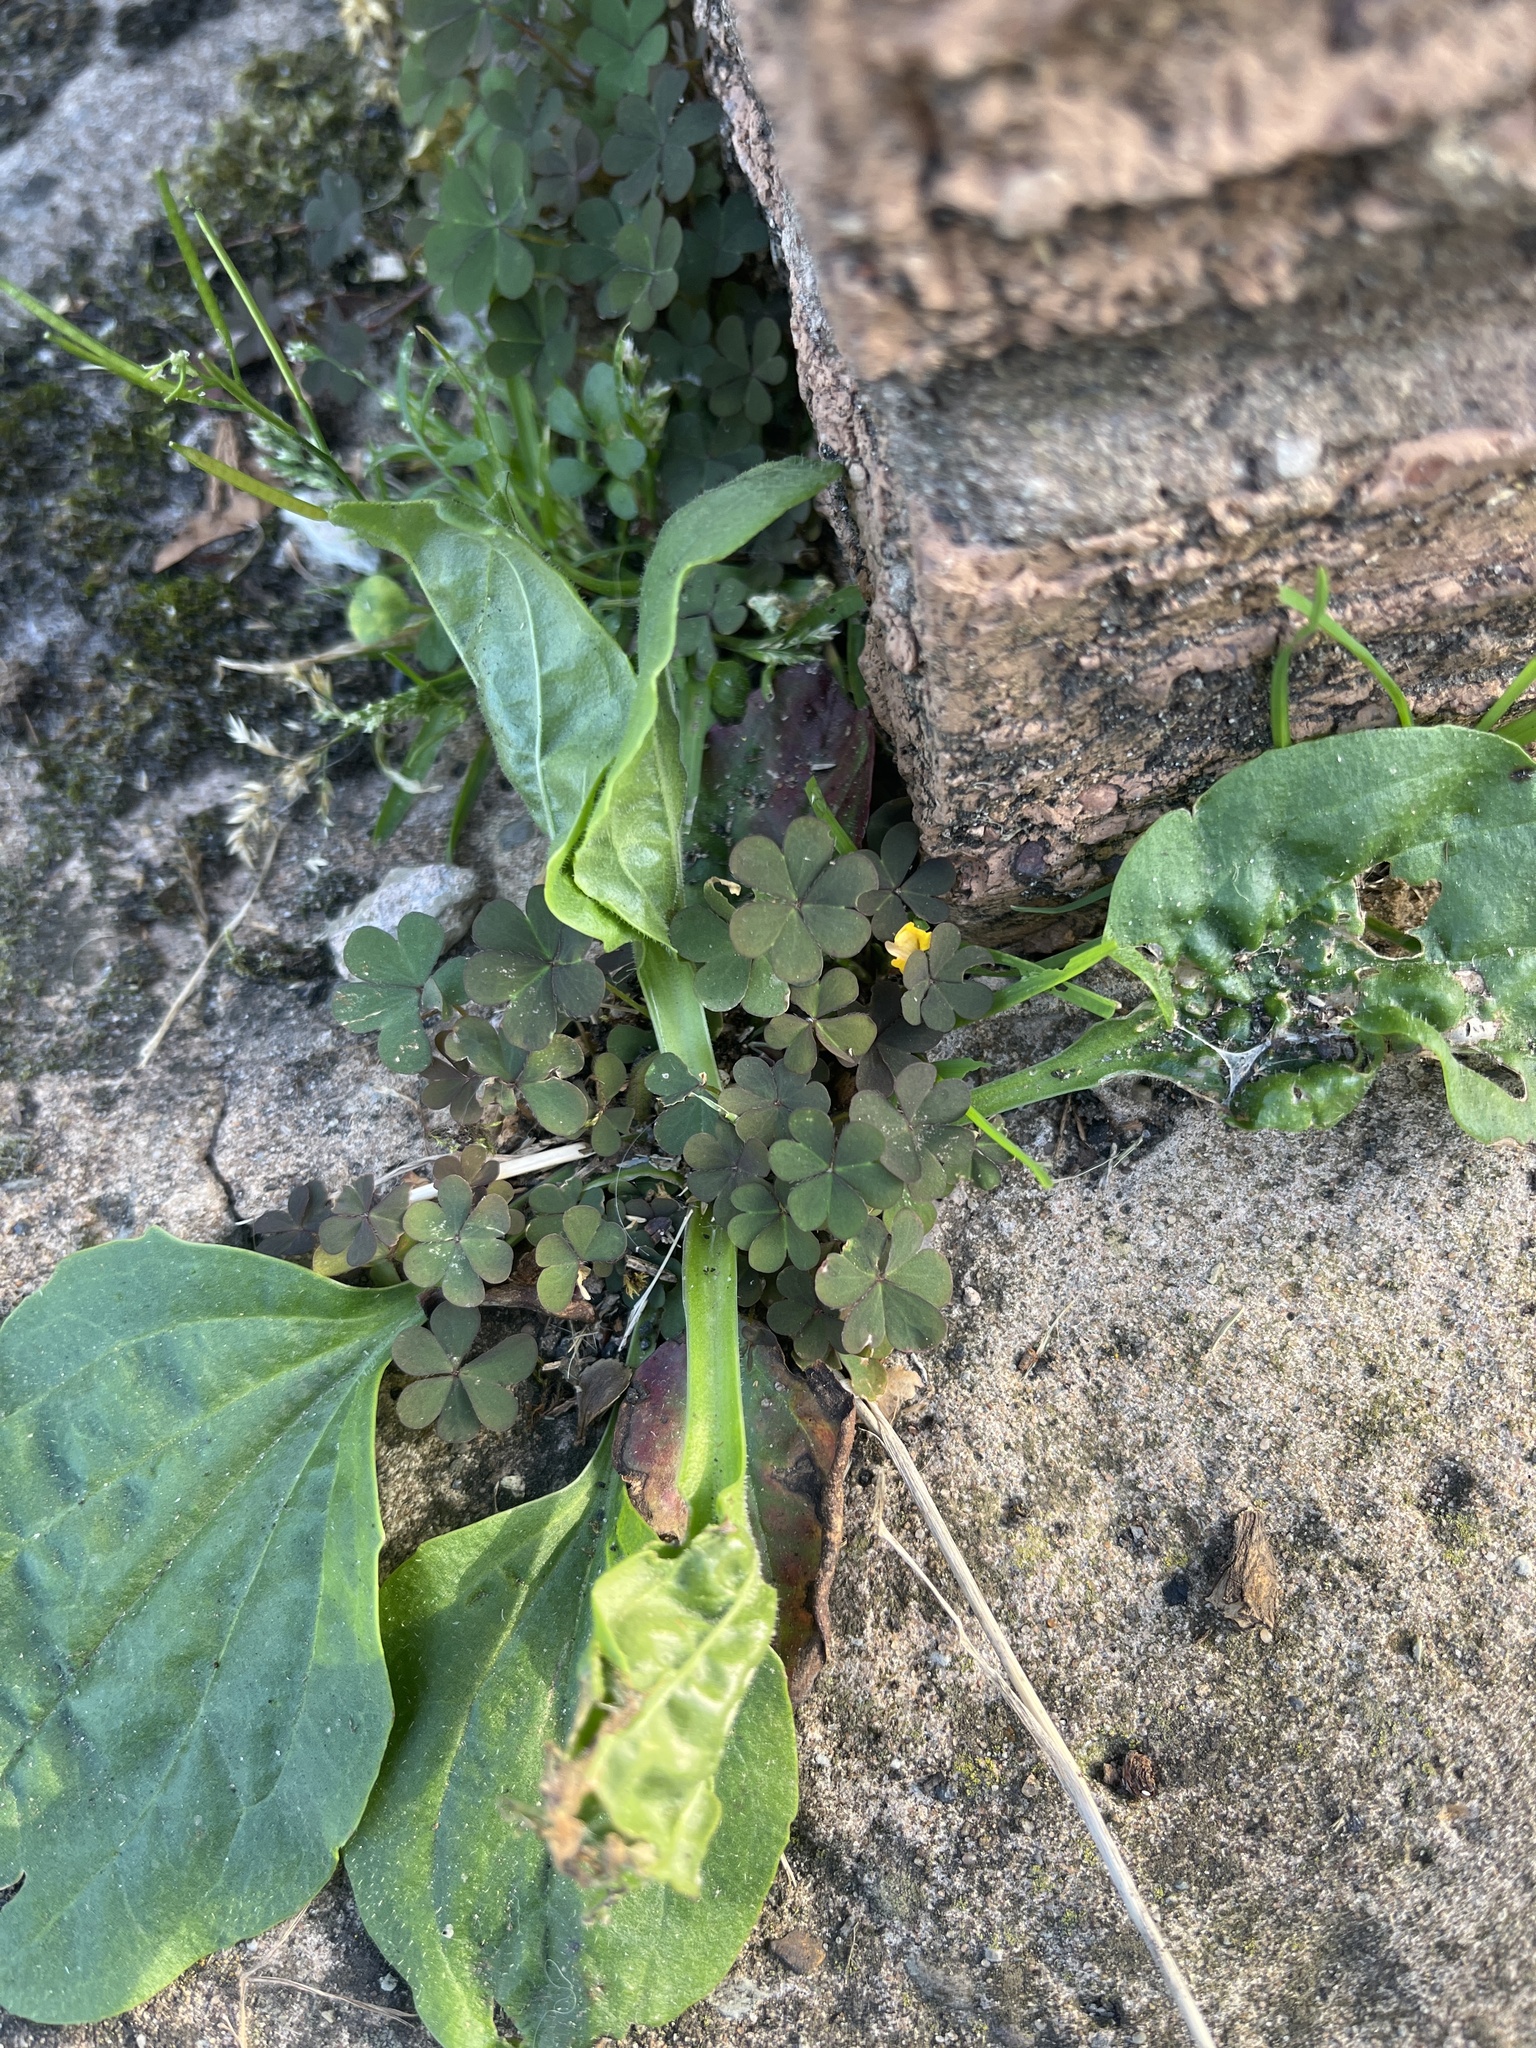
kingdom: Plantae
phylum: Tracheophyta
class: Magnoliopsida
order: Oxalidales
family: Oxalidaceae
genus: Oxalis
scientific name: Oxalis corniculata
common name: Procumbent yellow-sorrel
